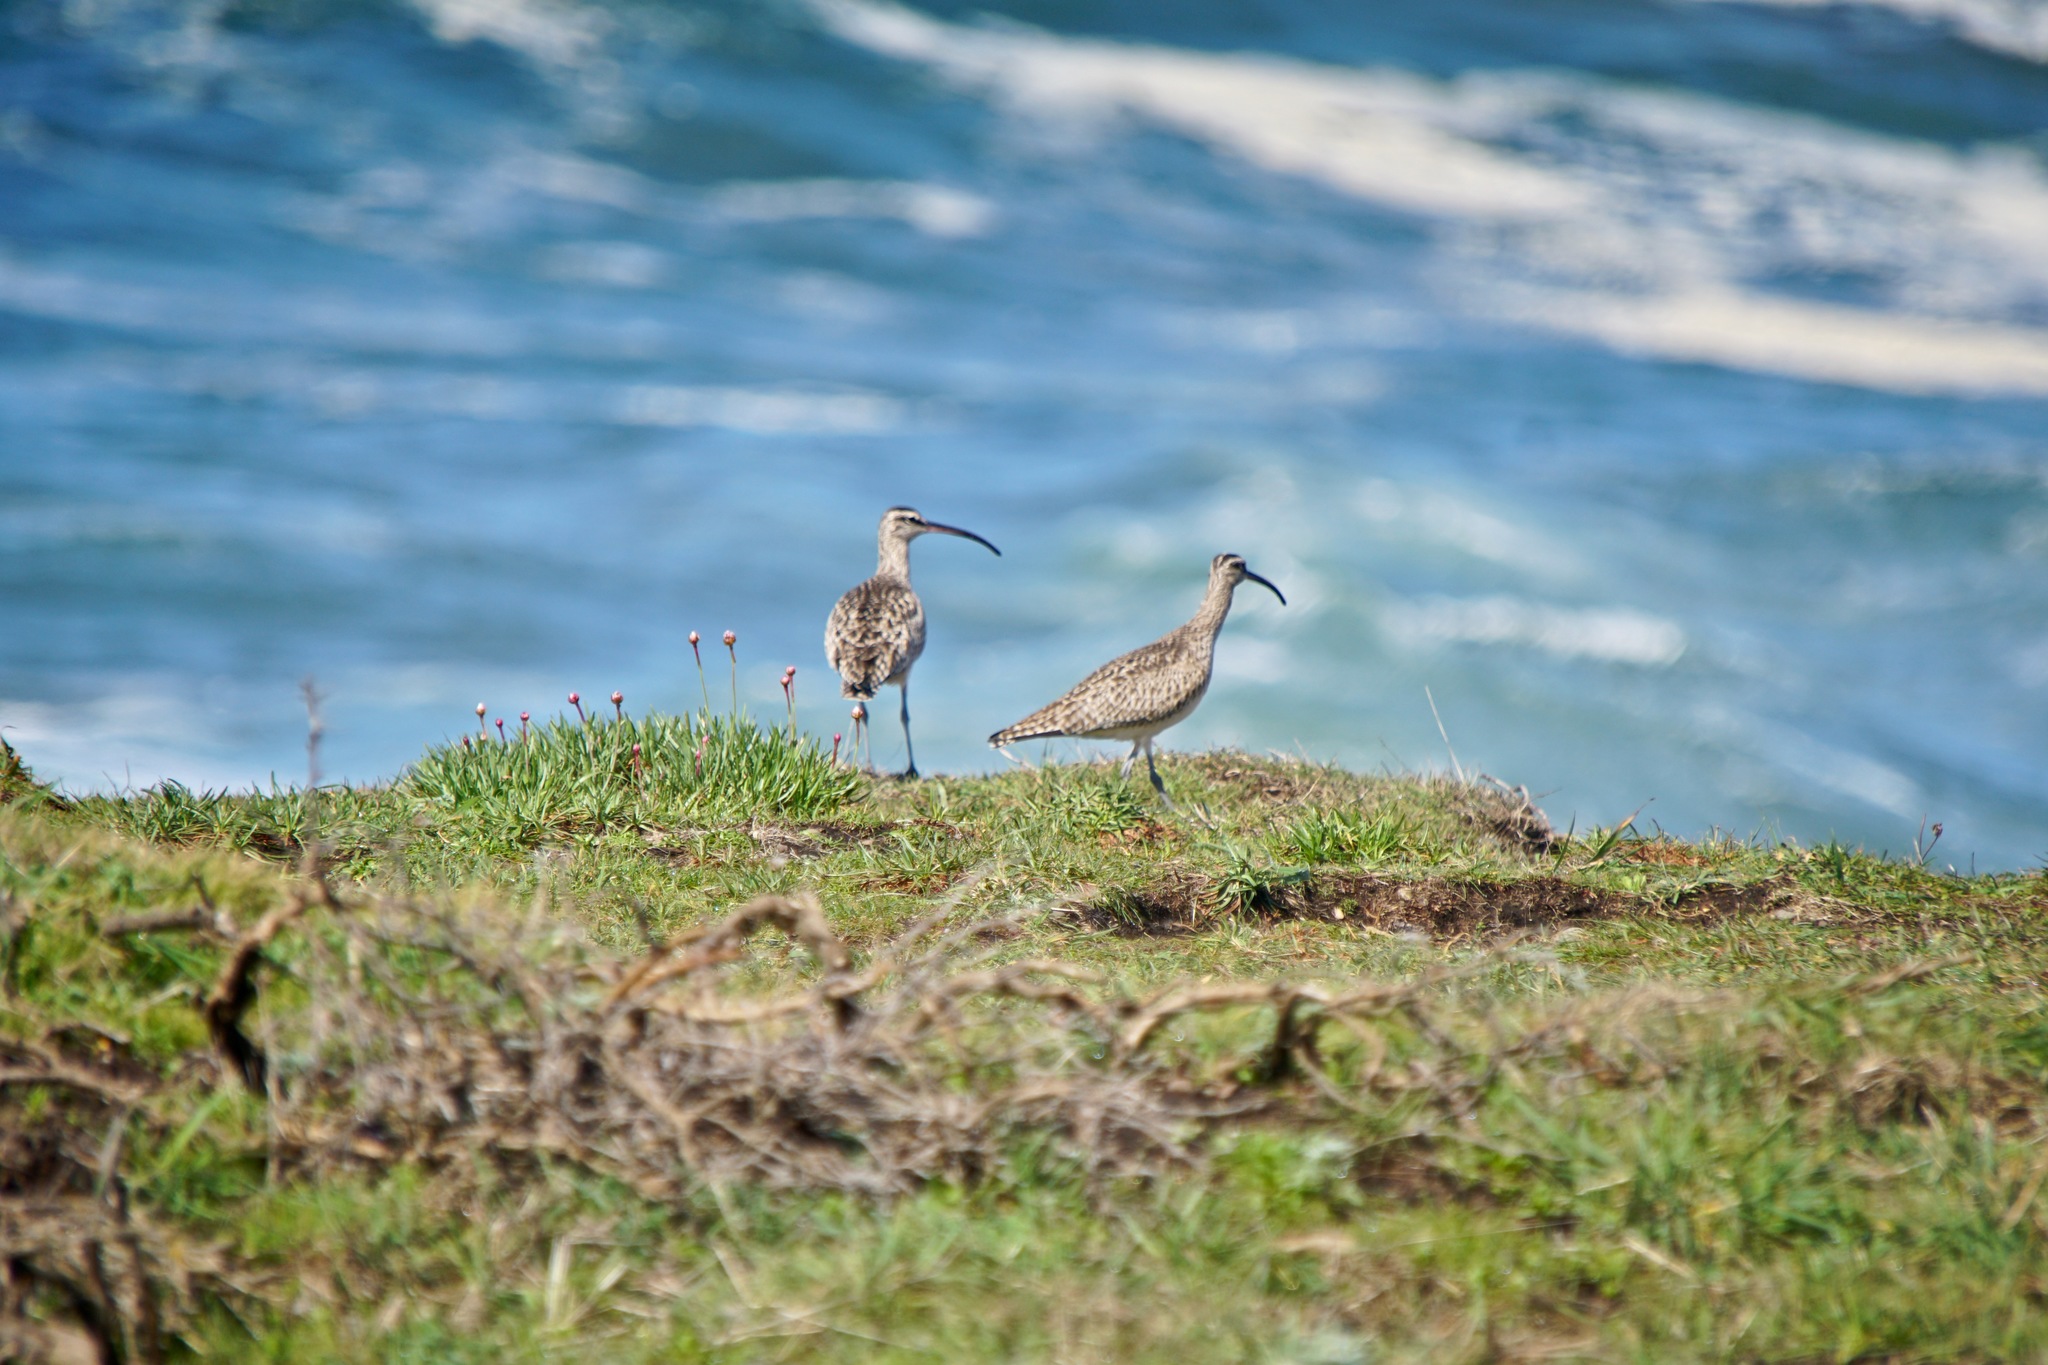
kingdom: Animalia
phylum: Chordata
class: Aves
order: Charadriiformes
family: Scolopacidae
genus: Numenius
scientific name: Numenius phaeopus
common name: Whimbrel
